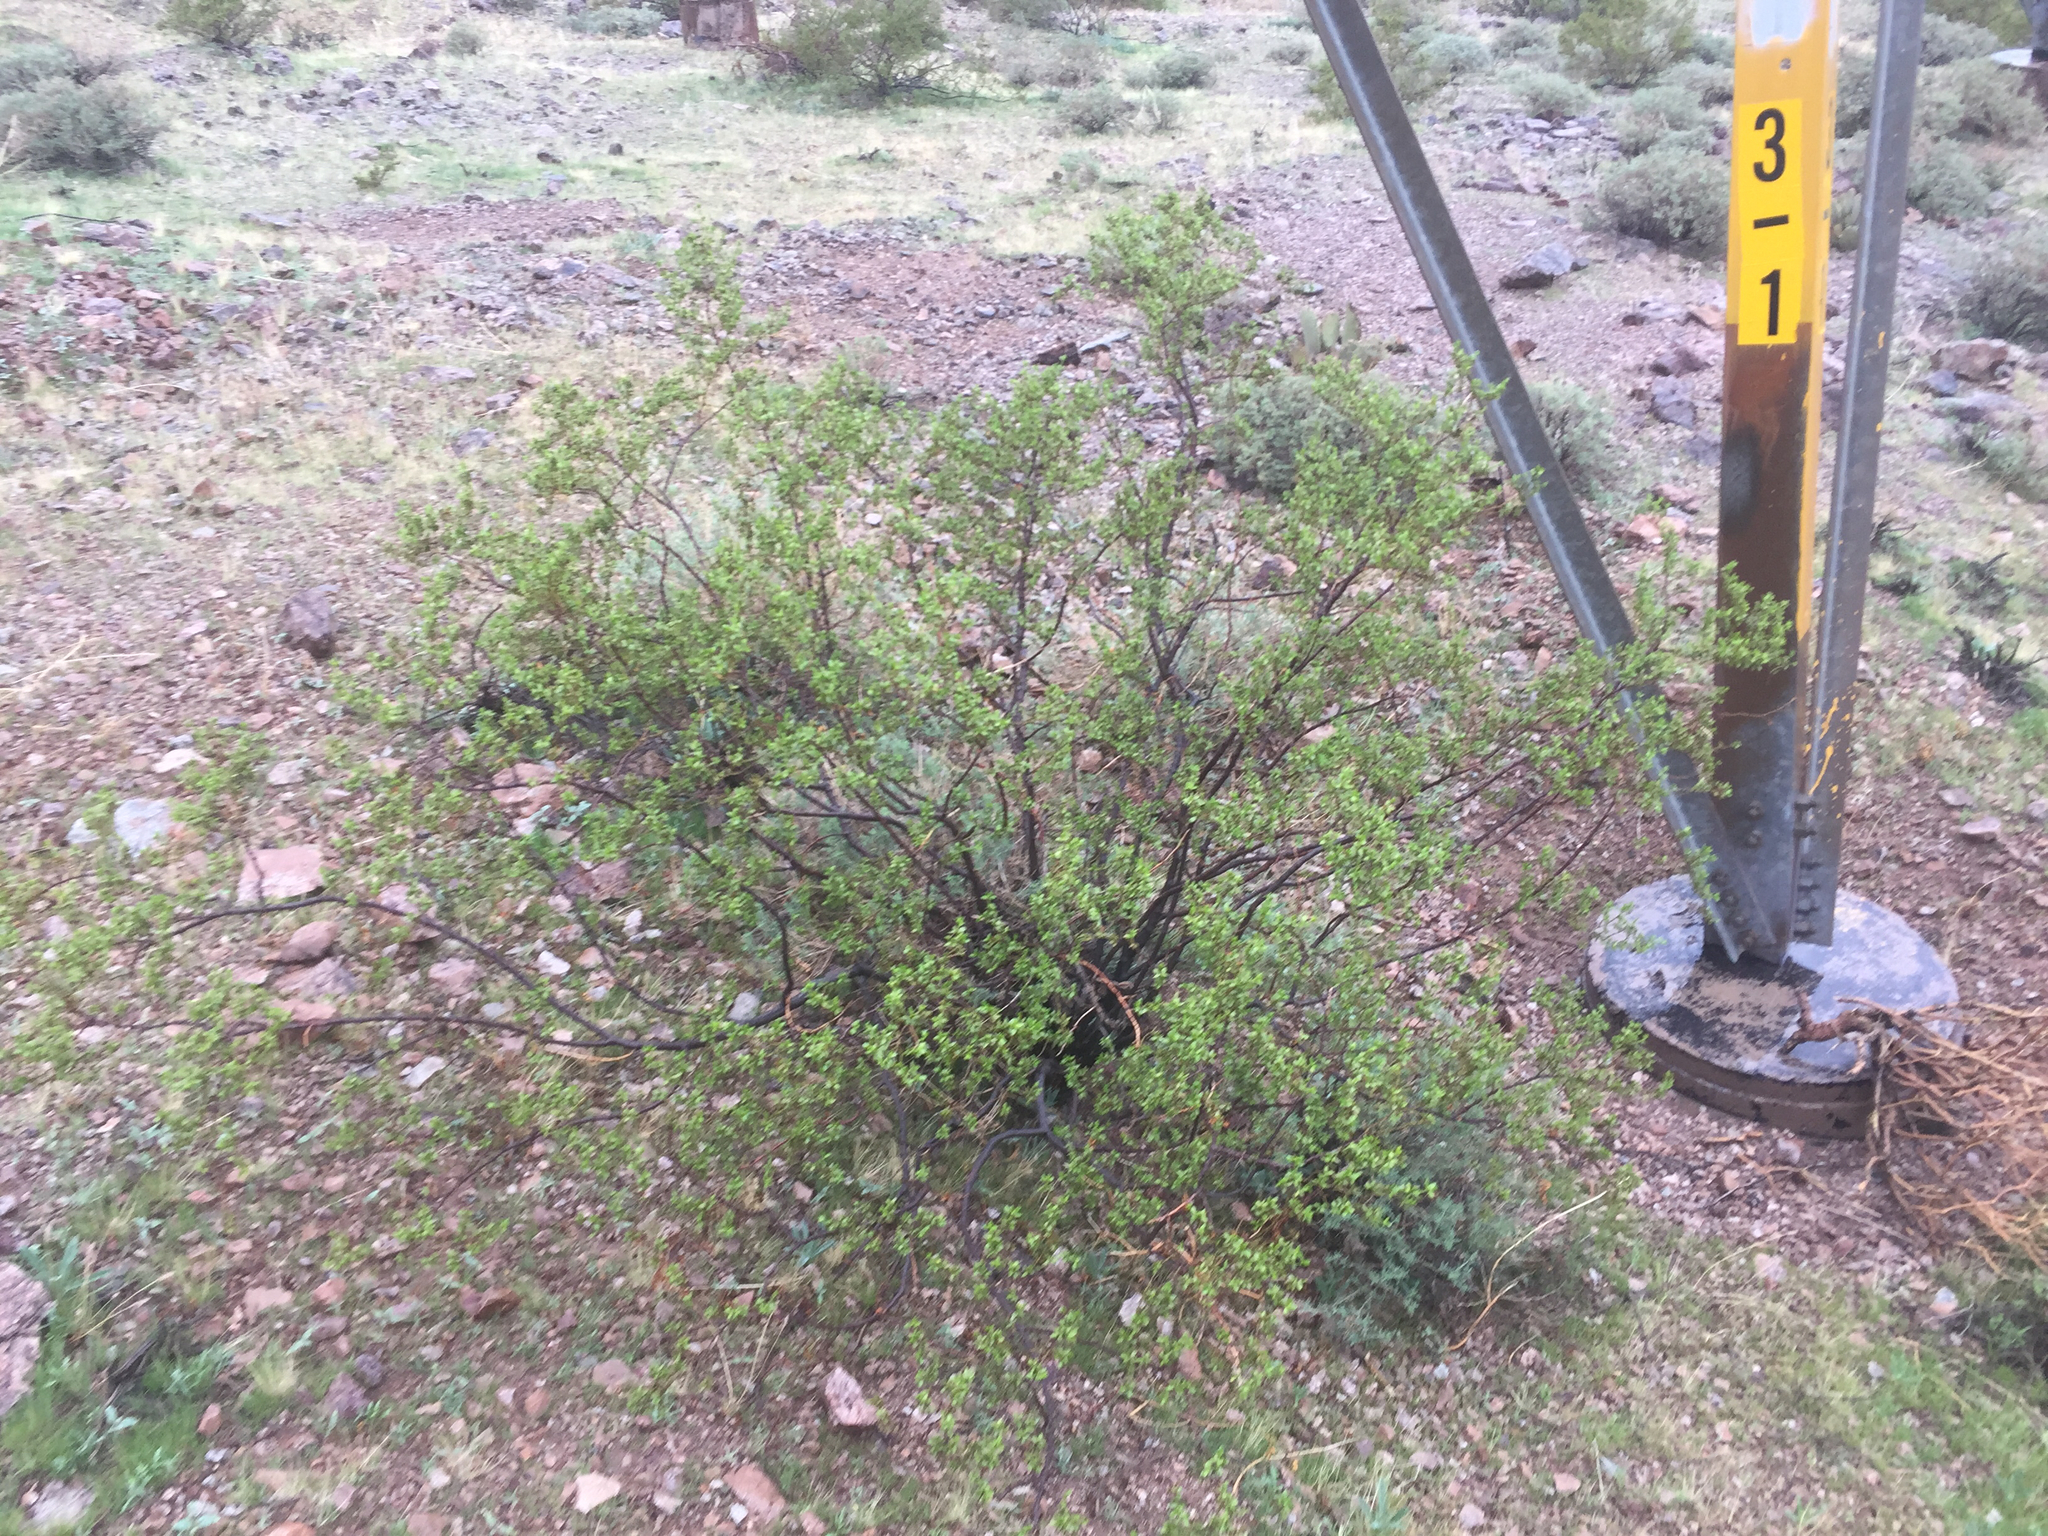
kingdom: Plantae
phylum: Tracheophyta
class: Magnoliopsida
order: Zygophyllales
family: Zygophyllaceae
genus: Larrea
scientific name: Larrea tridentata
